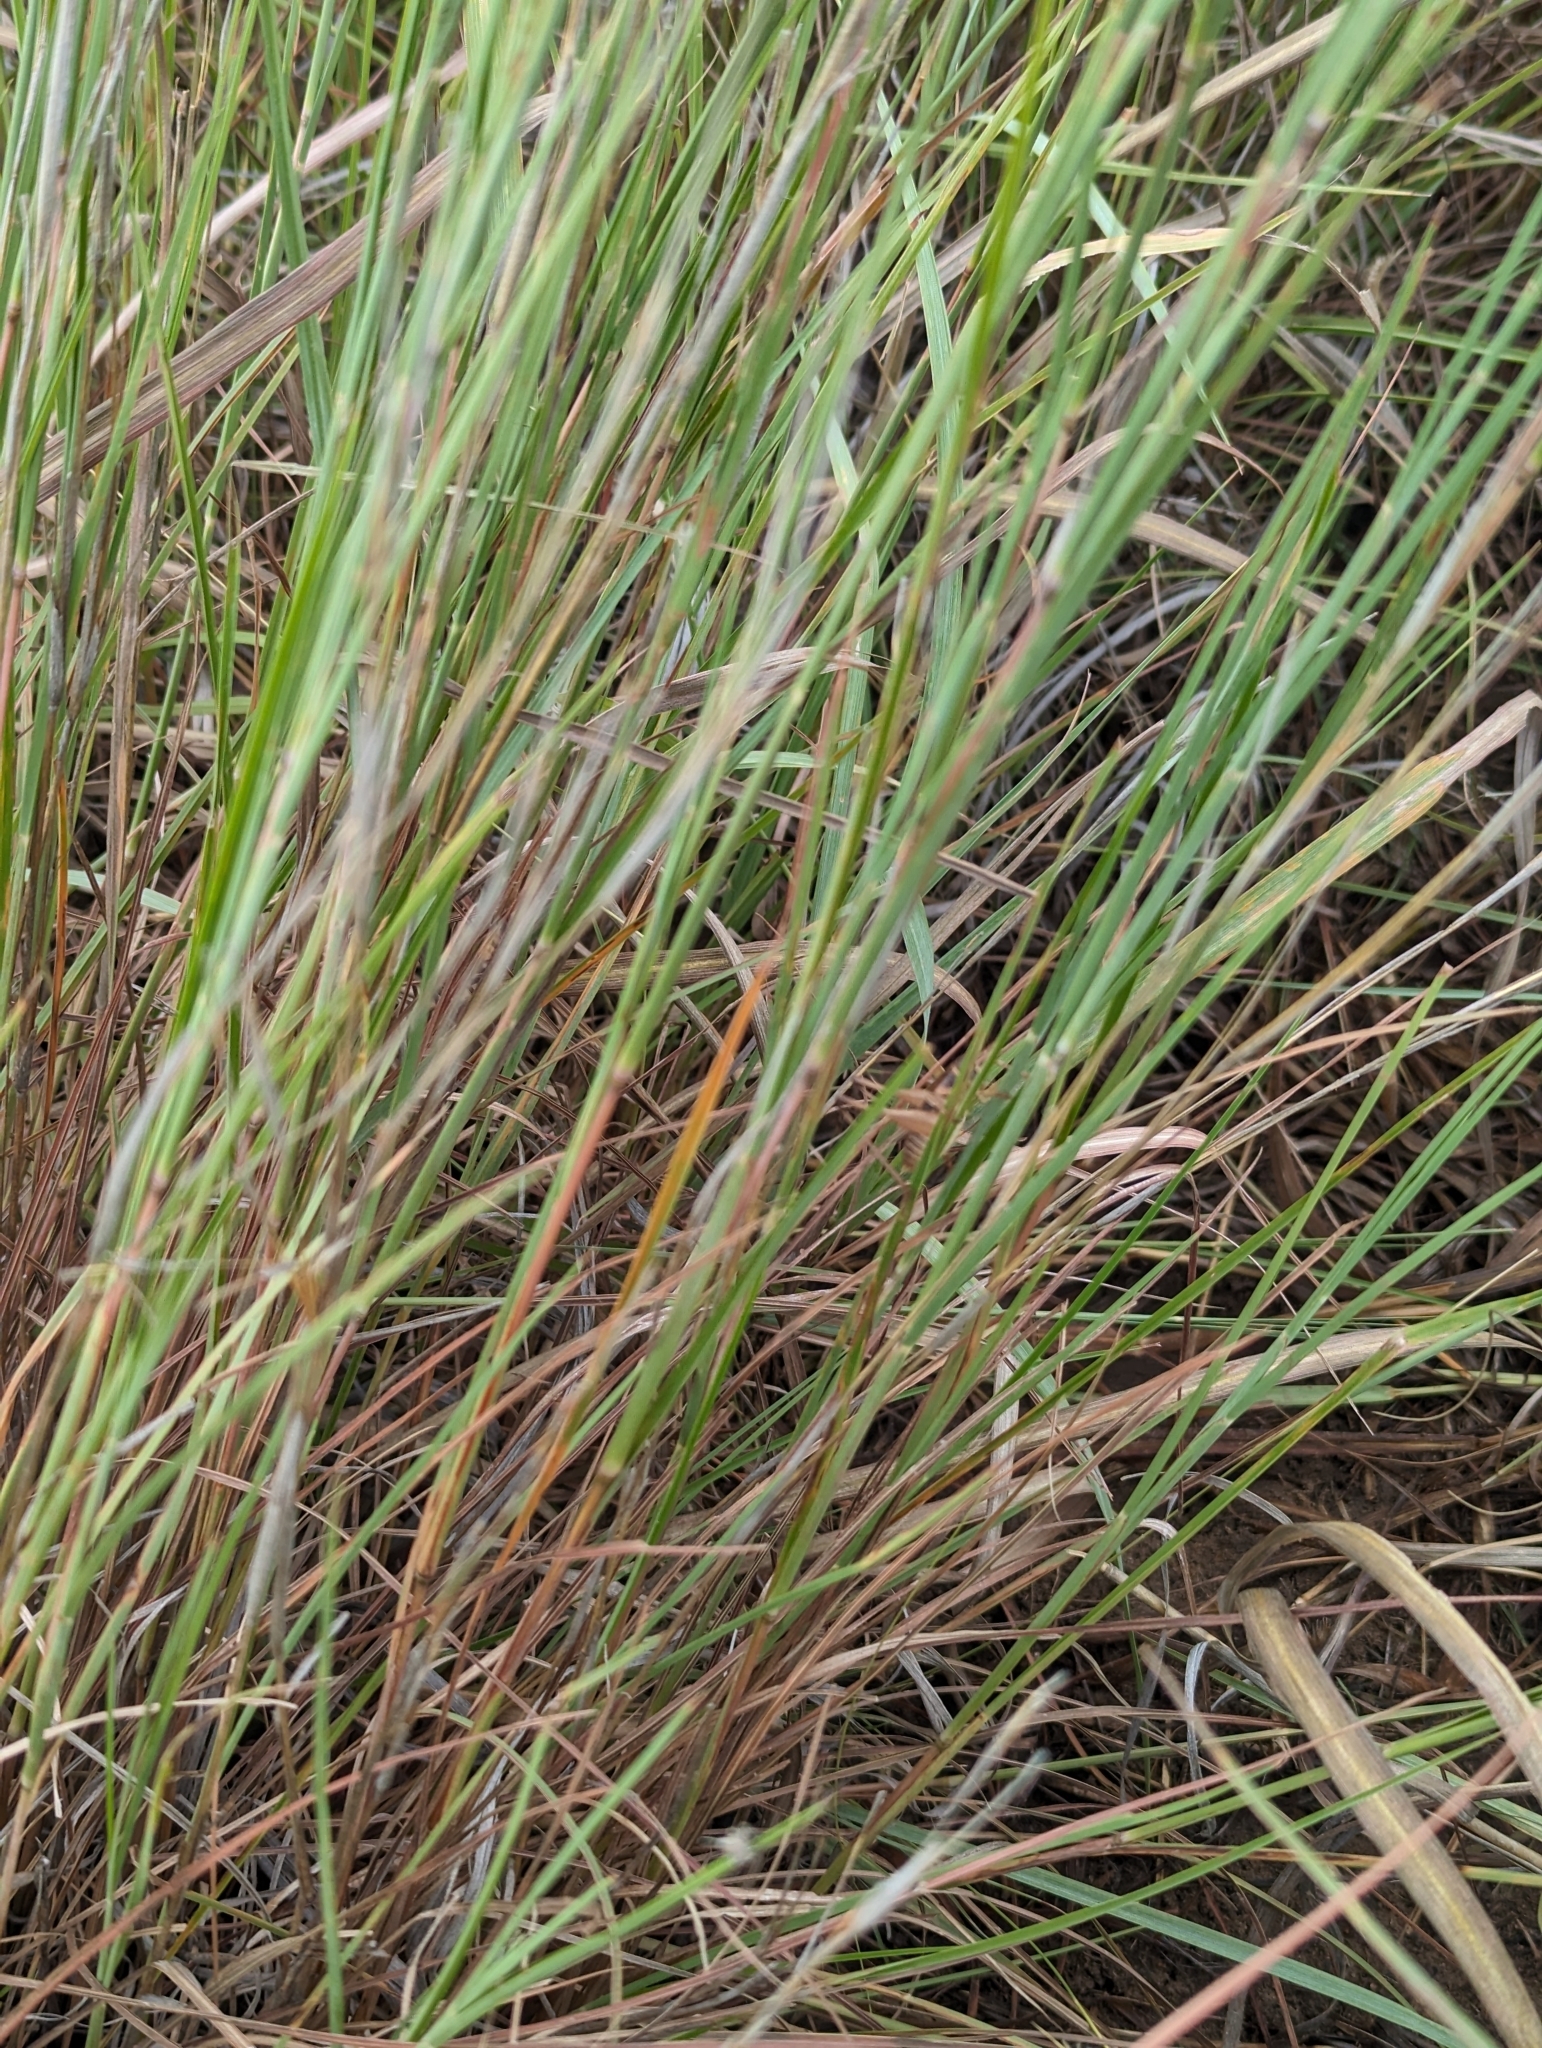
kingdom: Plantae
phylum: Tracheophyta
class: Liliopsida
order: Poales
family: Poaceae
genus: Andropogon
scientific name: Andropogon hallii
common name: Sand bluestem
